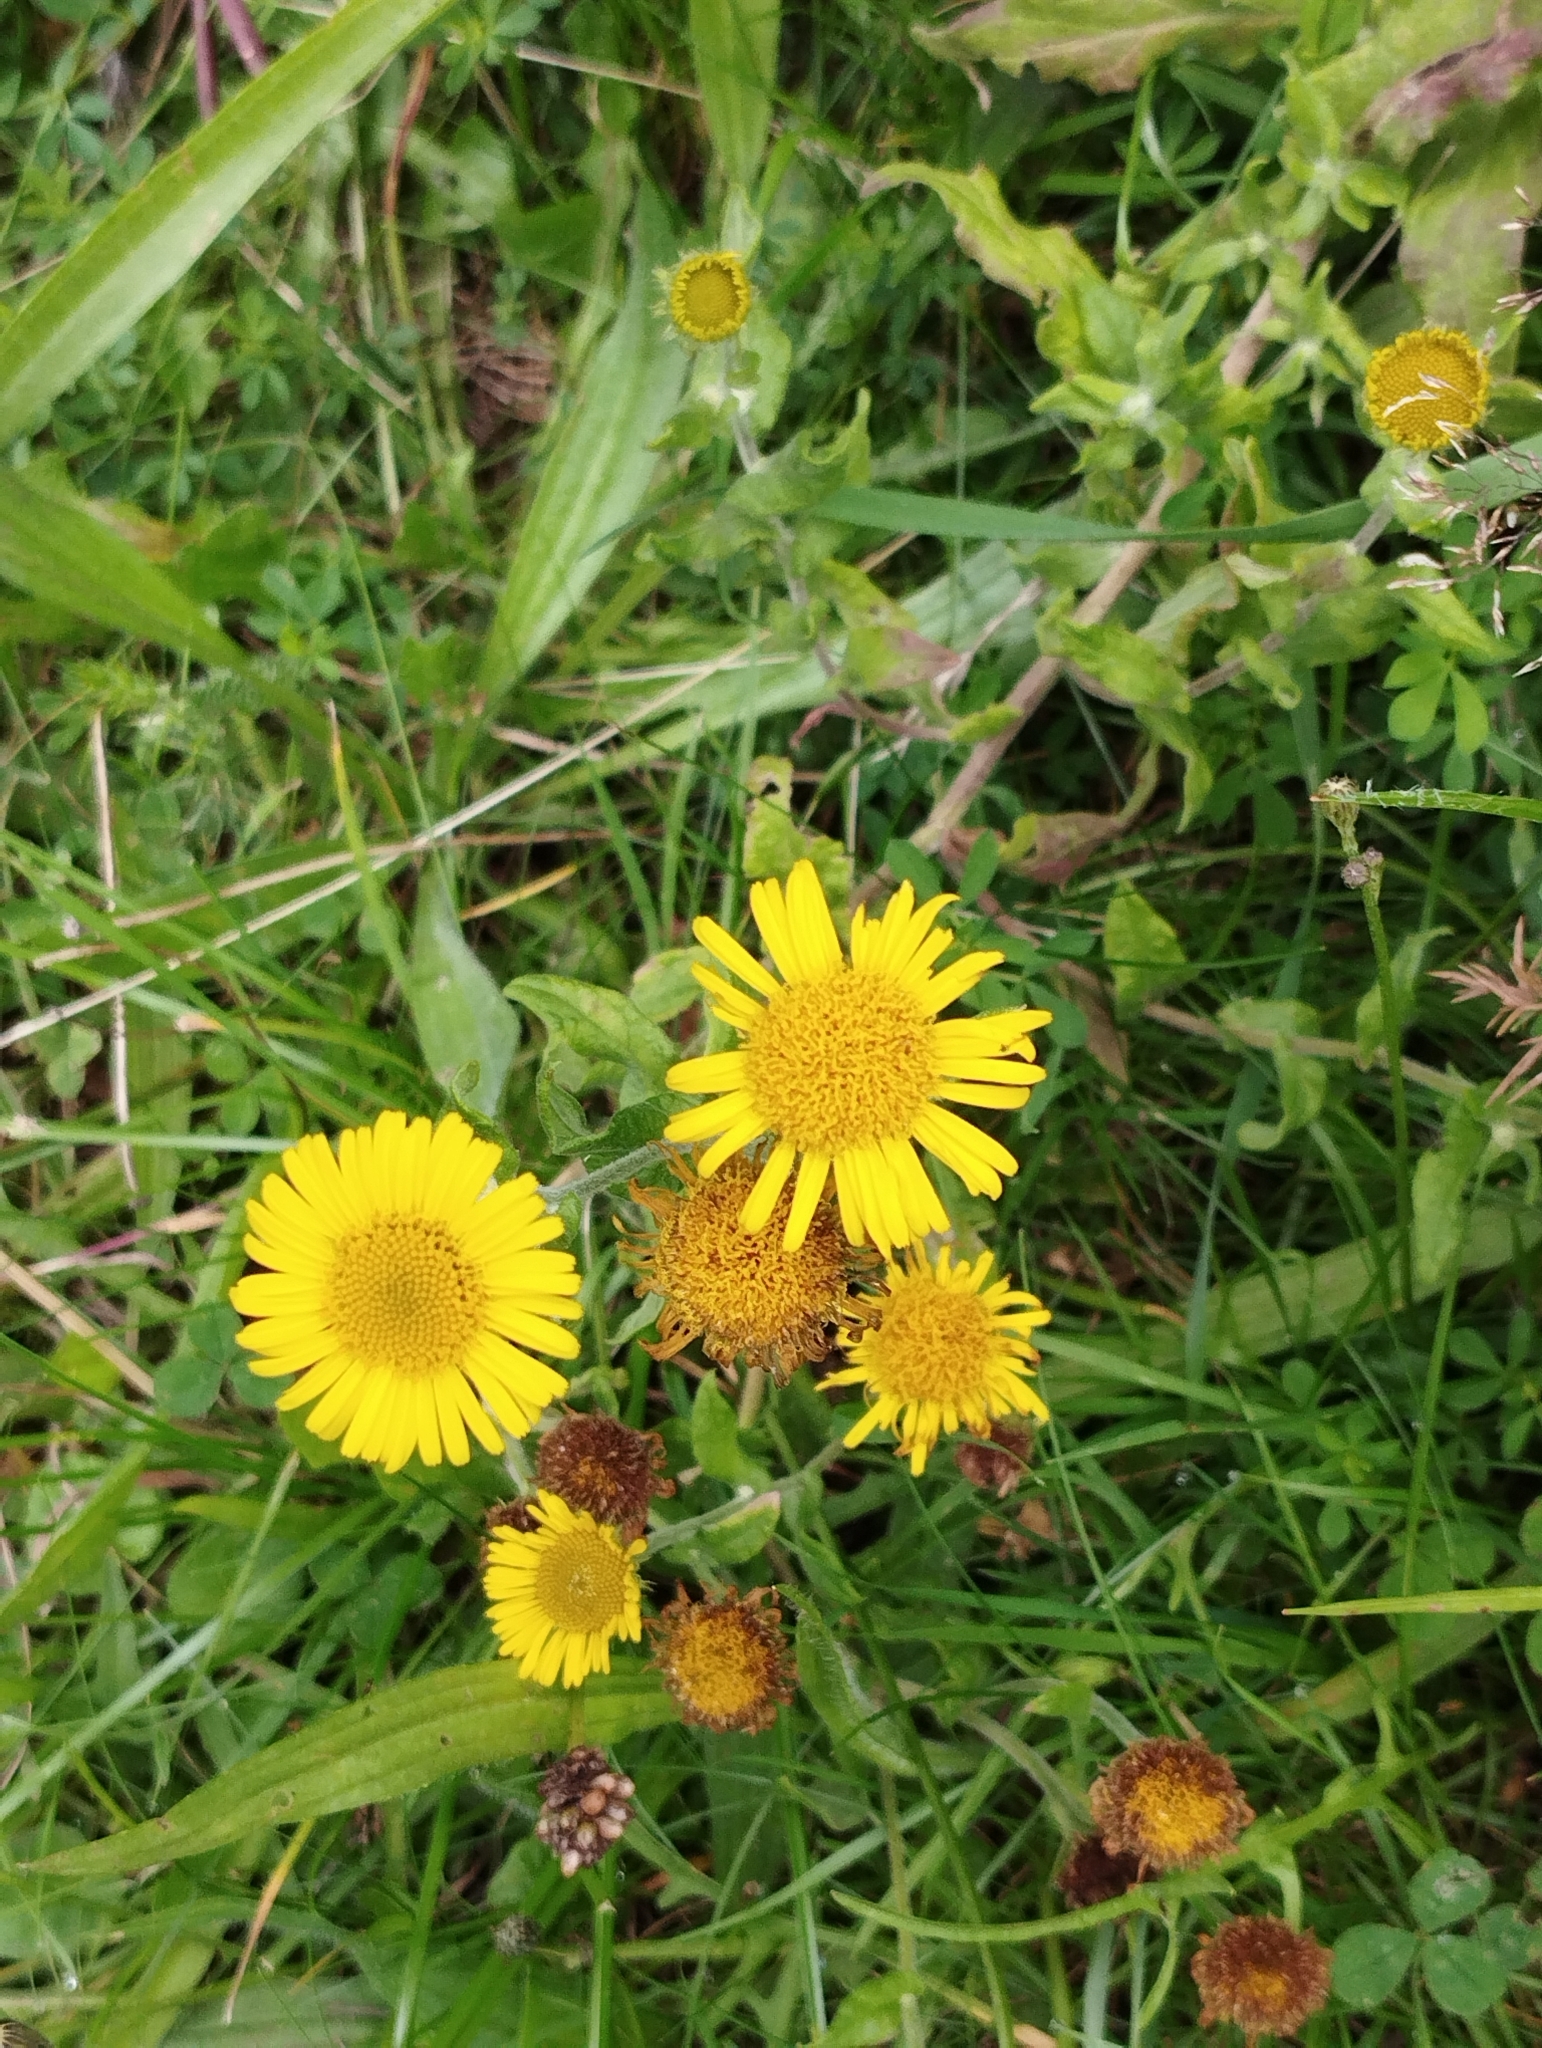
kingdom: Plantae
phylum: Tracheophyta
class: Magnoliopsida
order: Asterales
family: Asteraceae
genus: Pulicaria
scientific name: Pulicaria dysenterica
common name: Common fleabane
